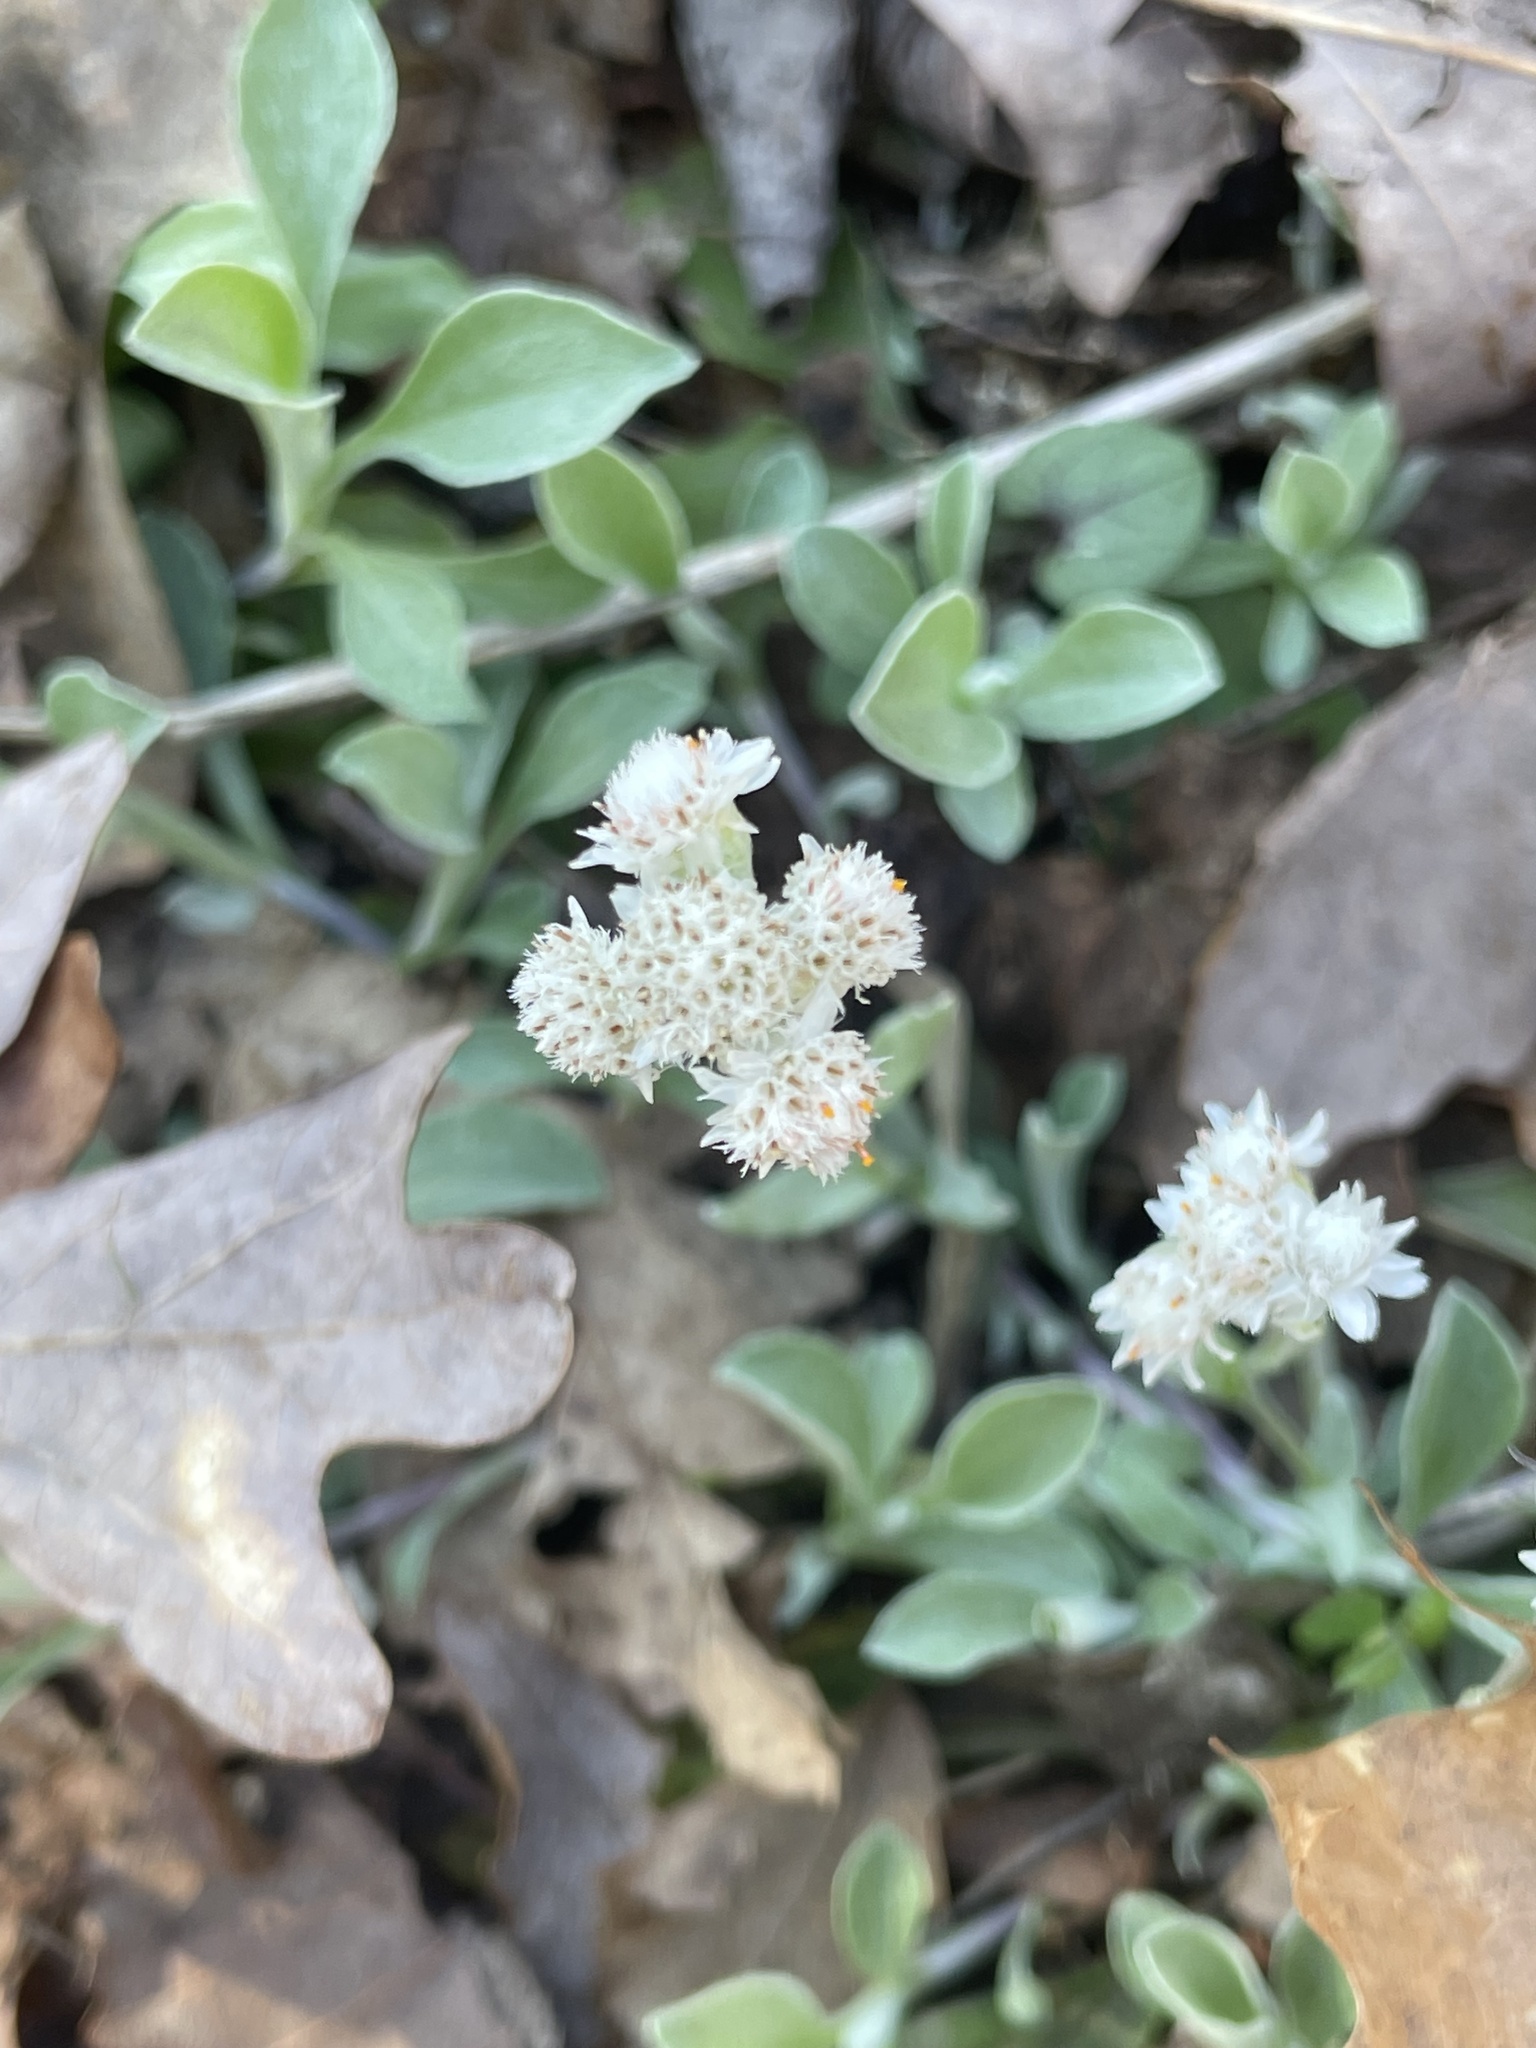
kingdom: Plantae
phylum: Tracheophyta
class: Magnoliopsida
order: Asterales
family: Asteraceae
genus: Antennaria
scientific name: Antennaria plantaginifolia
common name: Plantain-leaved pussytoes
